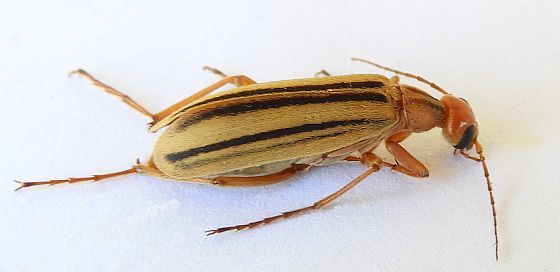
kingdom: Animalia
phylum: Arthropoda
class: Insecta
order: Coleoptera
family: Meloidae
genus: Epicauta
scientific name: Epicauta abadona
